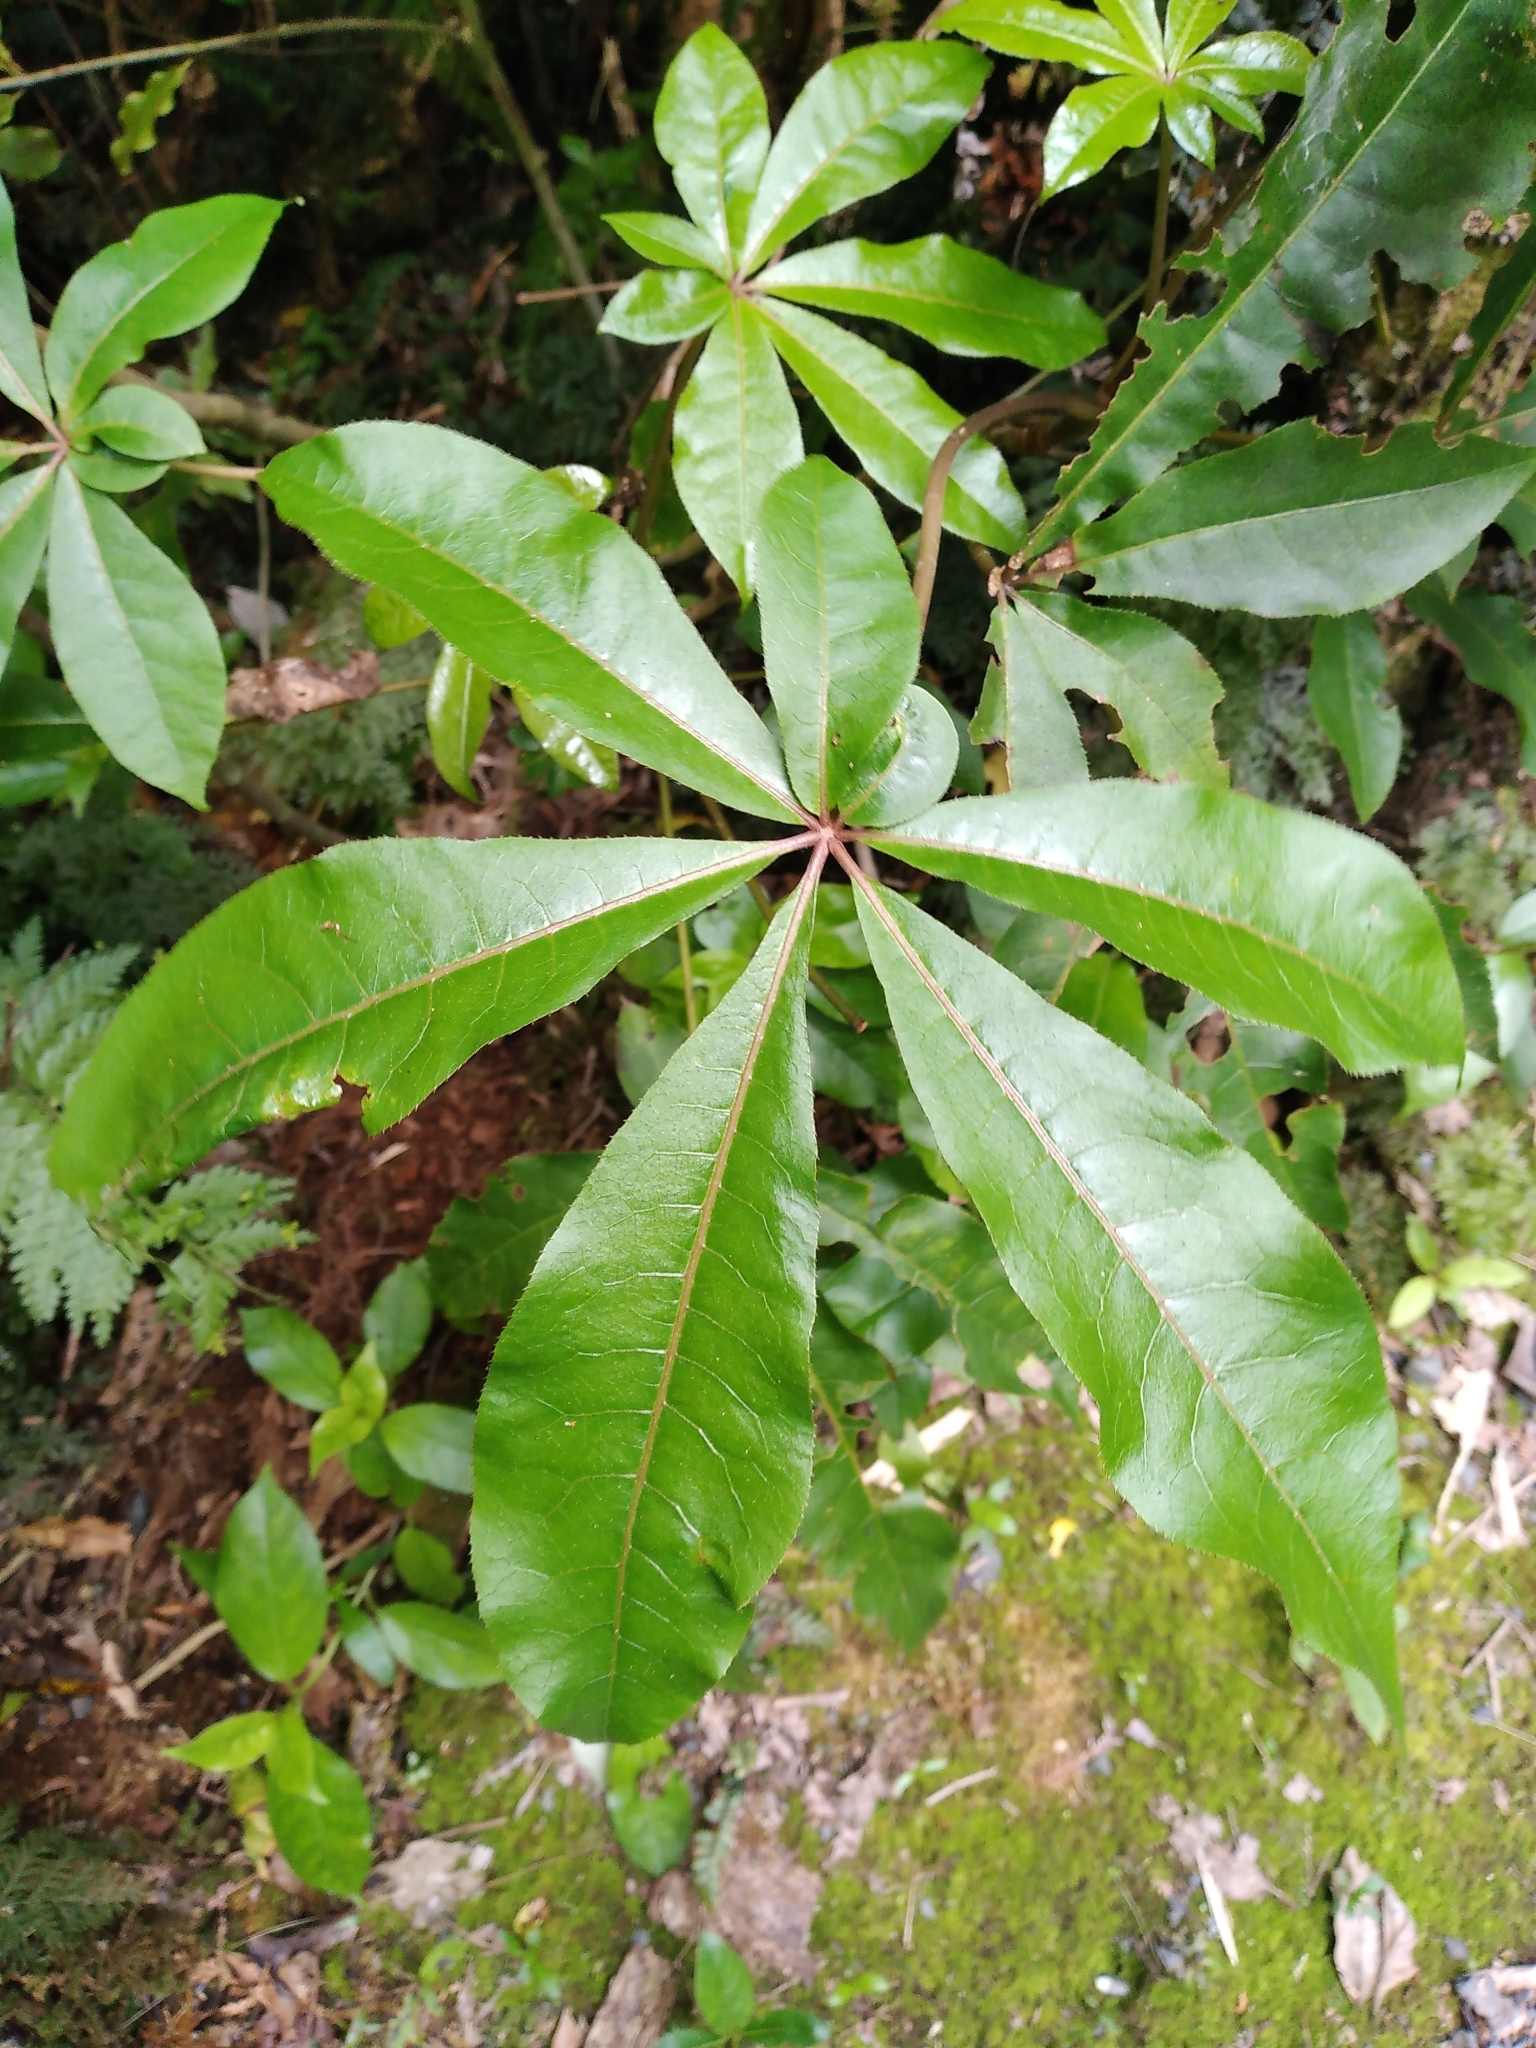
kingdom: Plantae
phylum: Tracheophyta
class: Magnoliopsida
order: Apiales
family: Araliaceae
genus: Schefflera
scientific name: Schefflera digitata
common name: Pate
